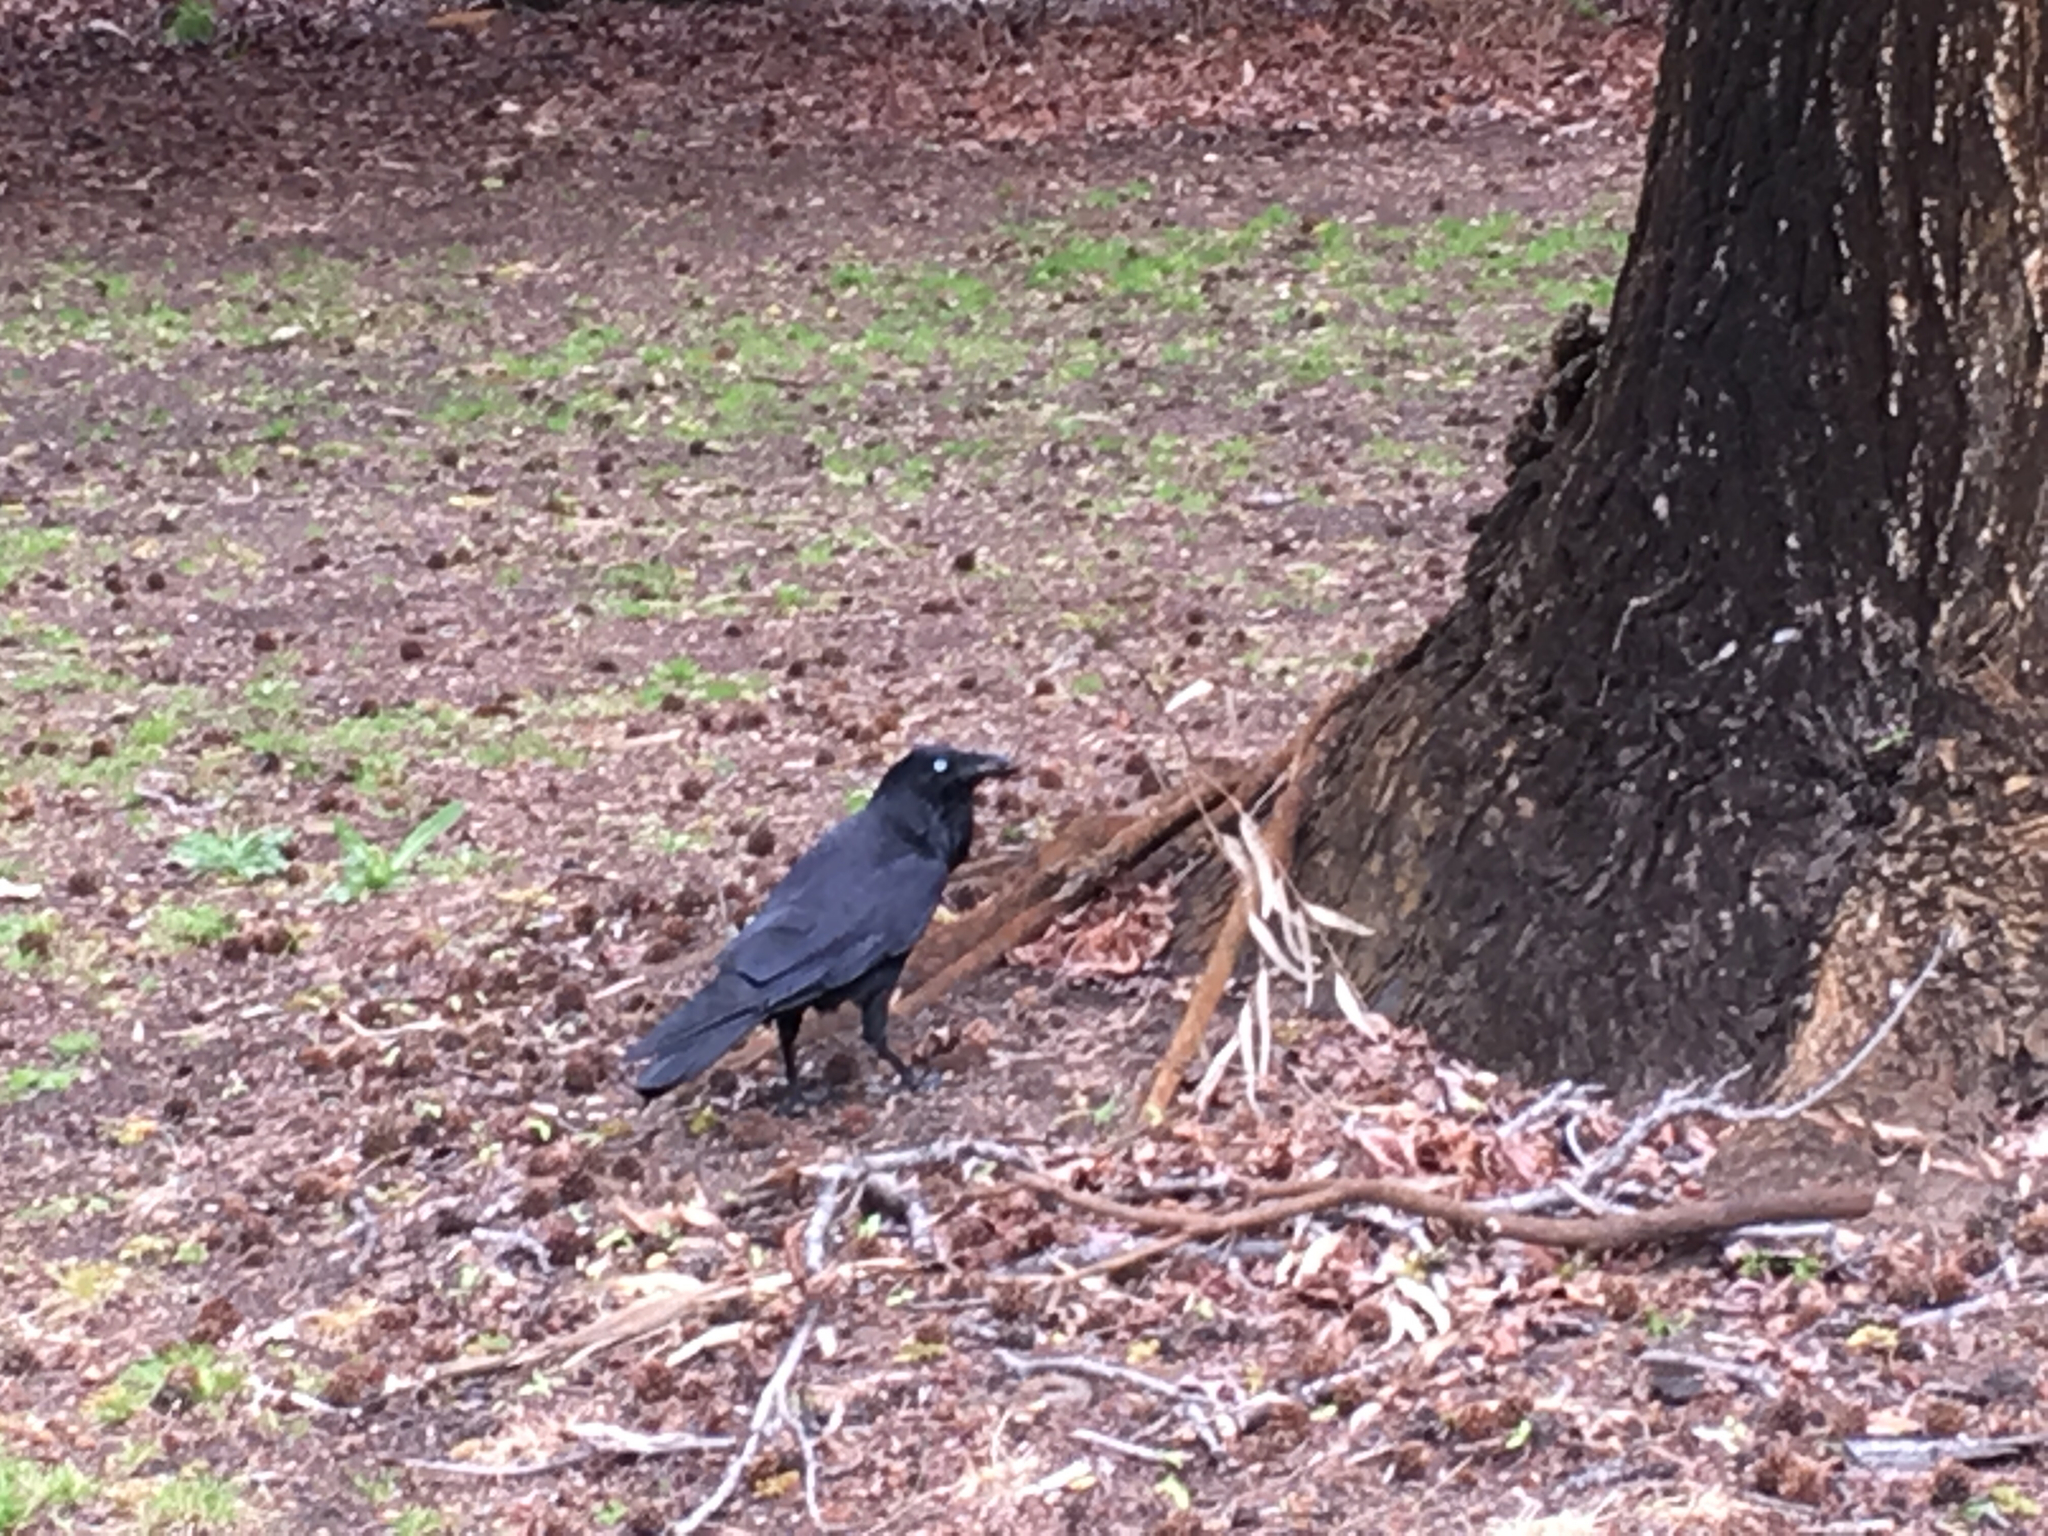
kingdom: Animalia
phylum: Chordata
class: Aves
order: Passeriformes
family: Corvidae
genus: Corvus
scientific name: Corvus coronoides
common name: Australian raven
